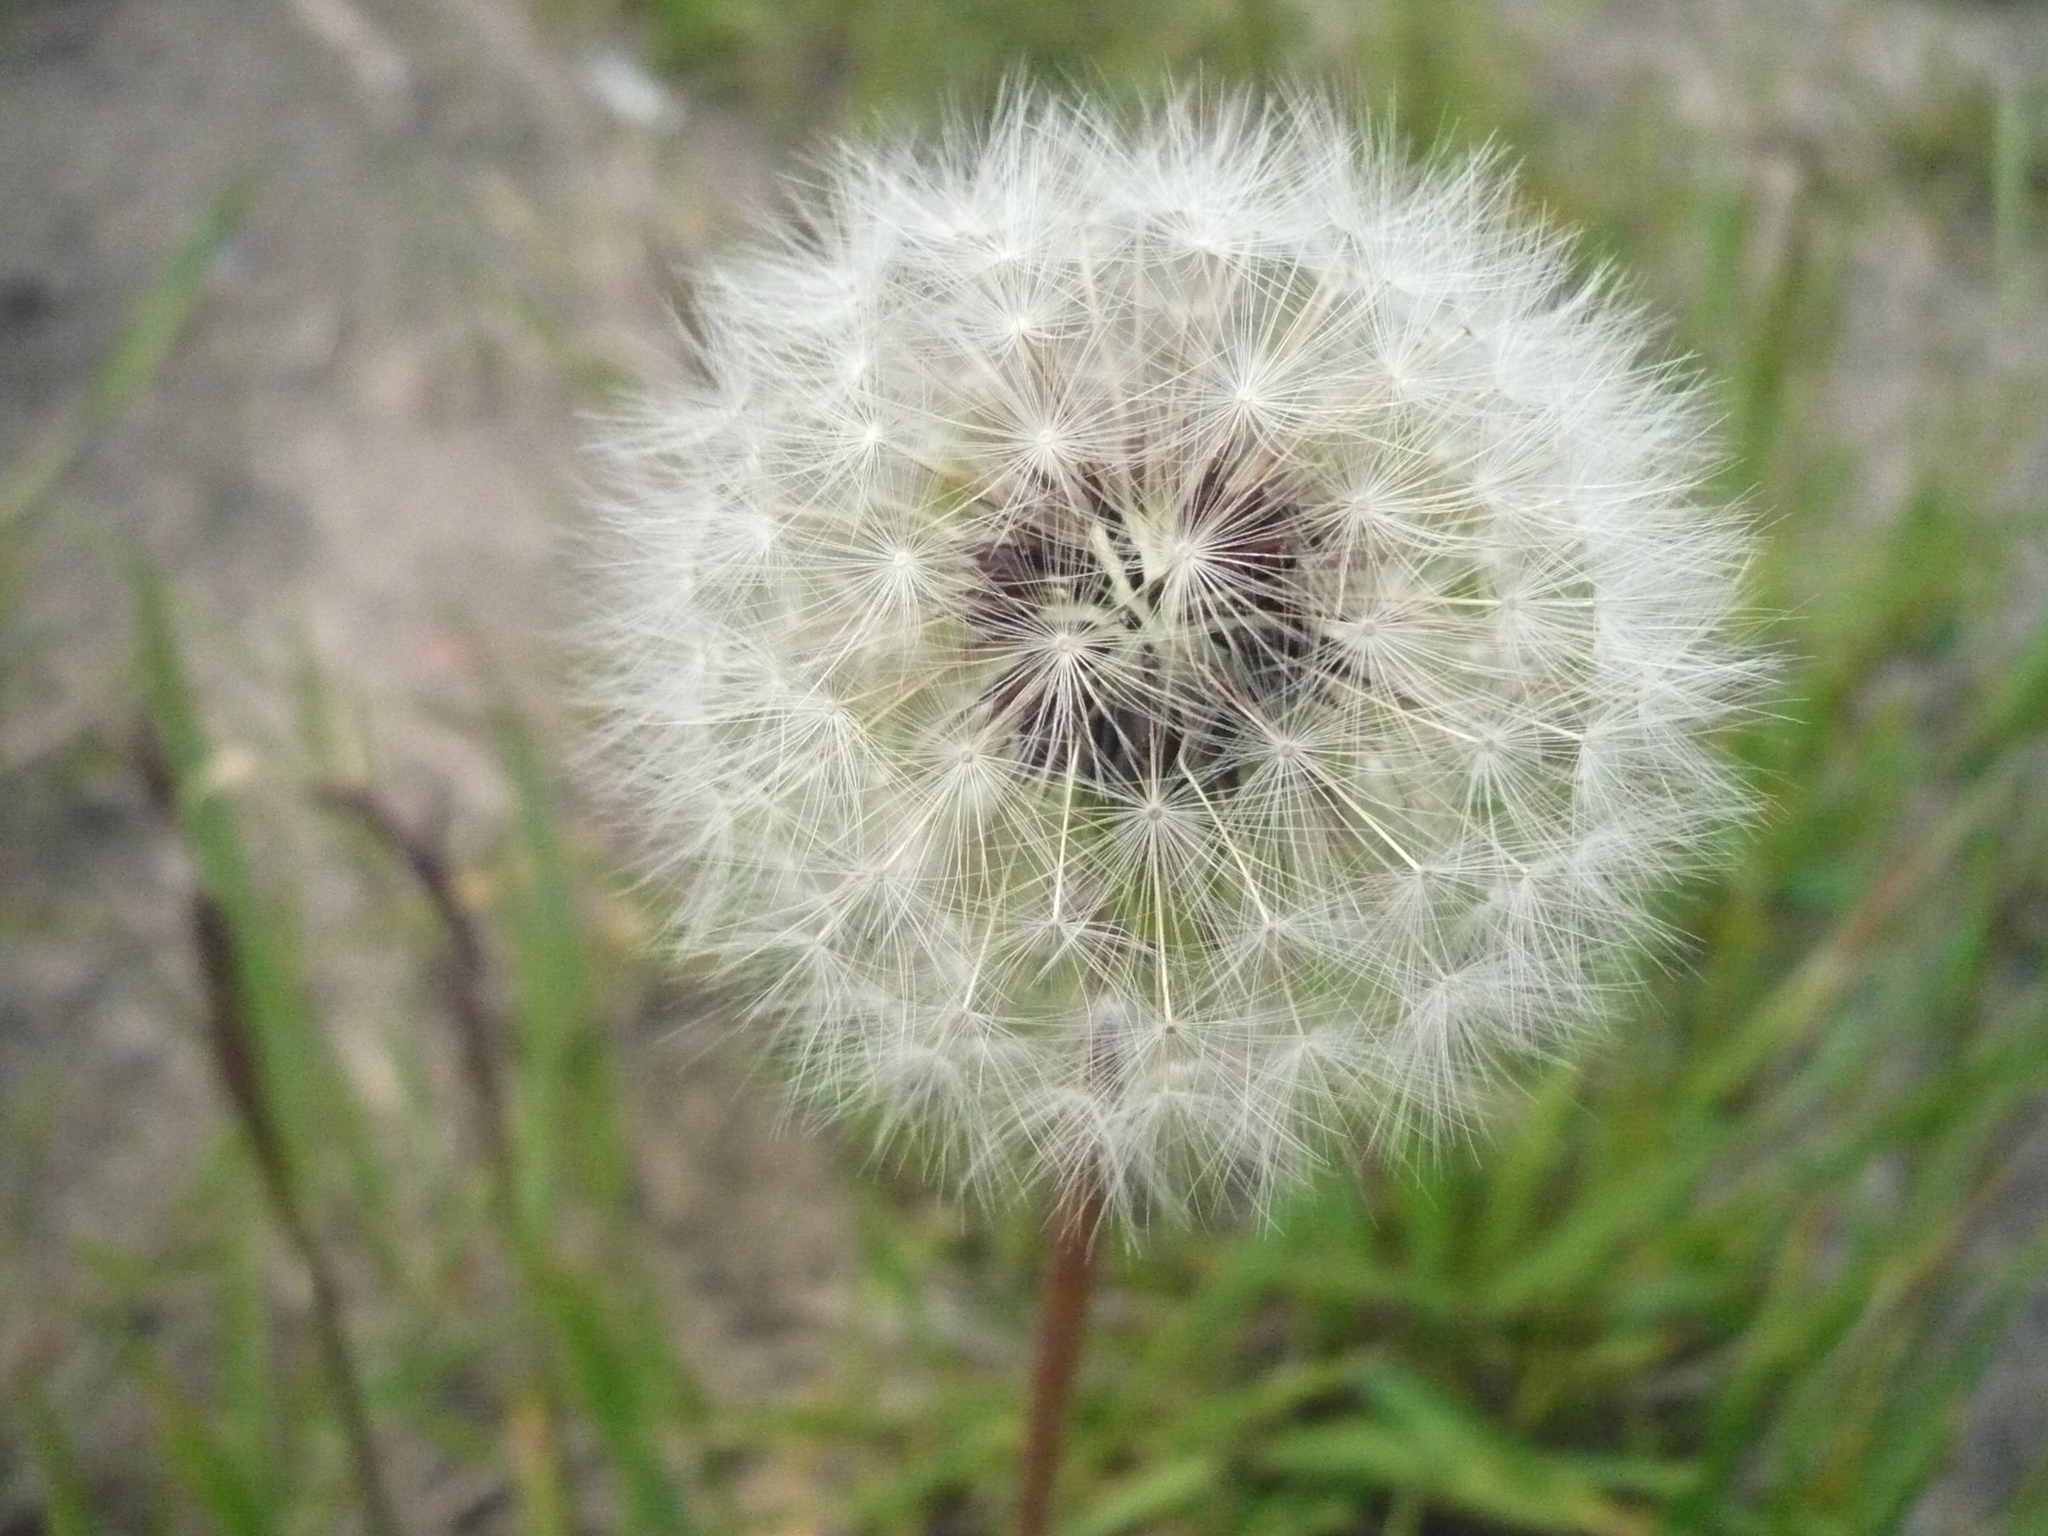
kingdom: Plantae
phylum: Tracheophyta
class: Magnoliopsida
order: Asterales
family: Asteraceae
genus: Taraxacum
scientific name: Taraxacum officinale
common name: Common dandelion
